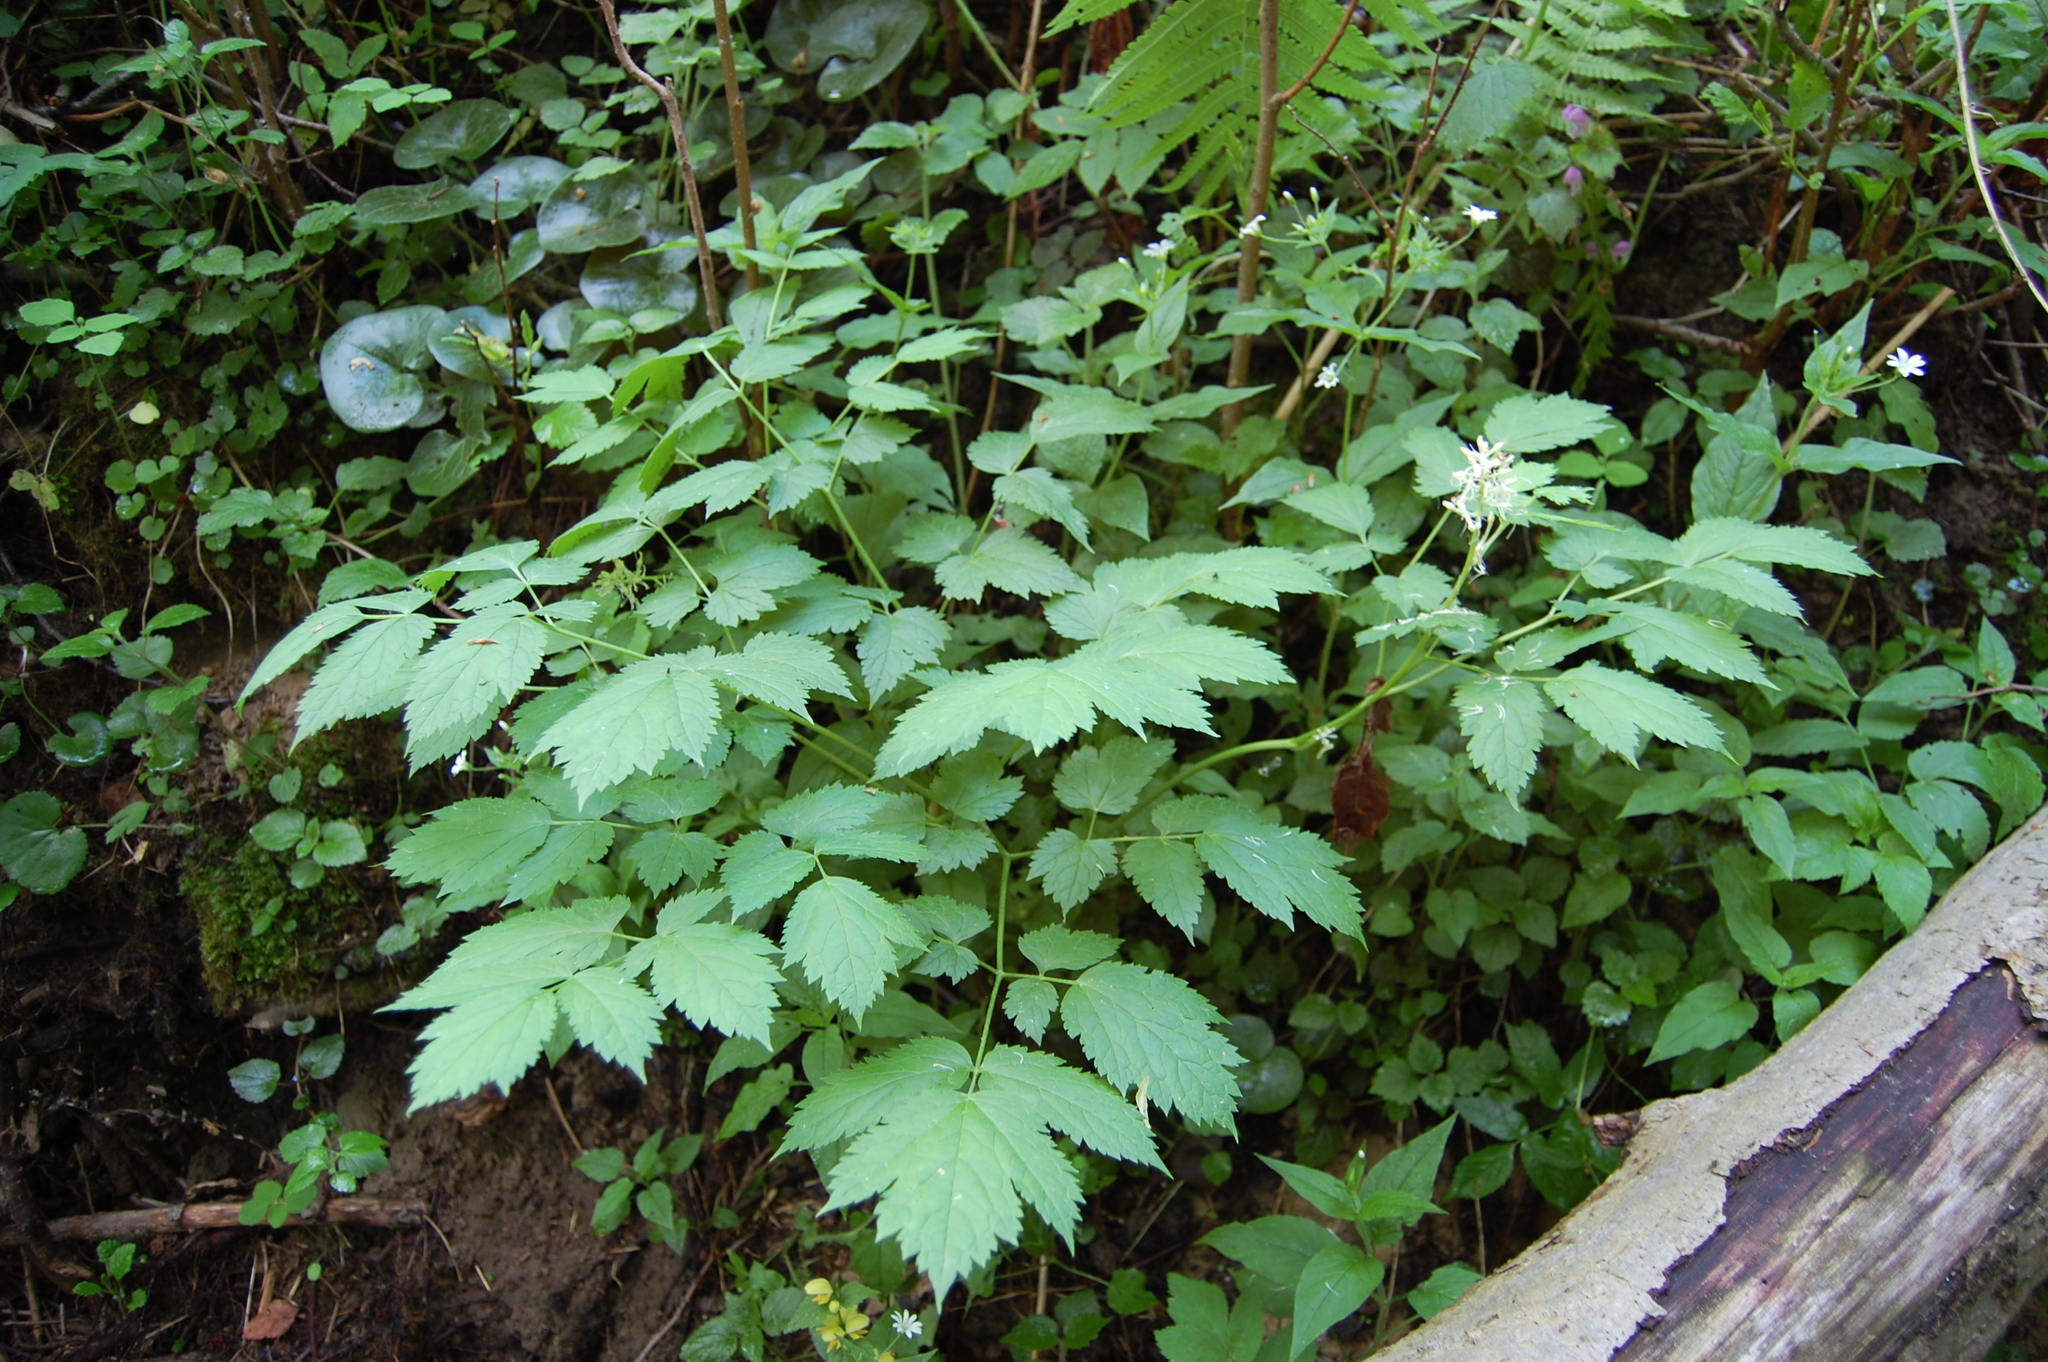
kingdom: Plantae
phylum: Tracheophyta
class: Magnoliopsida
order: Ranunculales
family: Ranunculaceae
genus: Actaea
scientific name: Actaea spicata
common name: Baneberry
